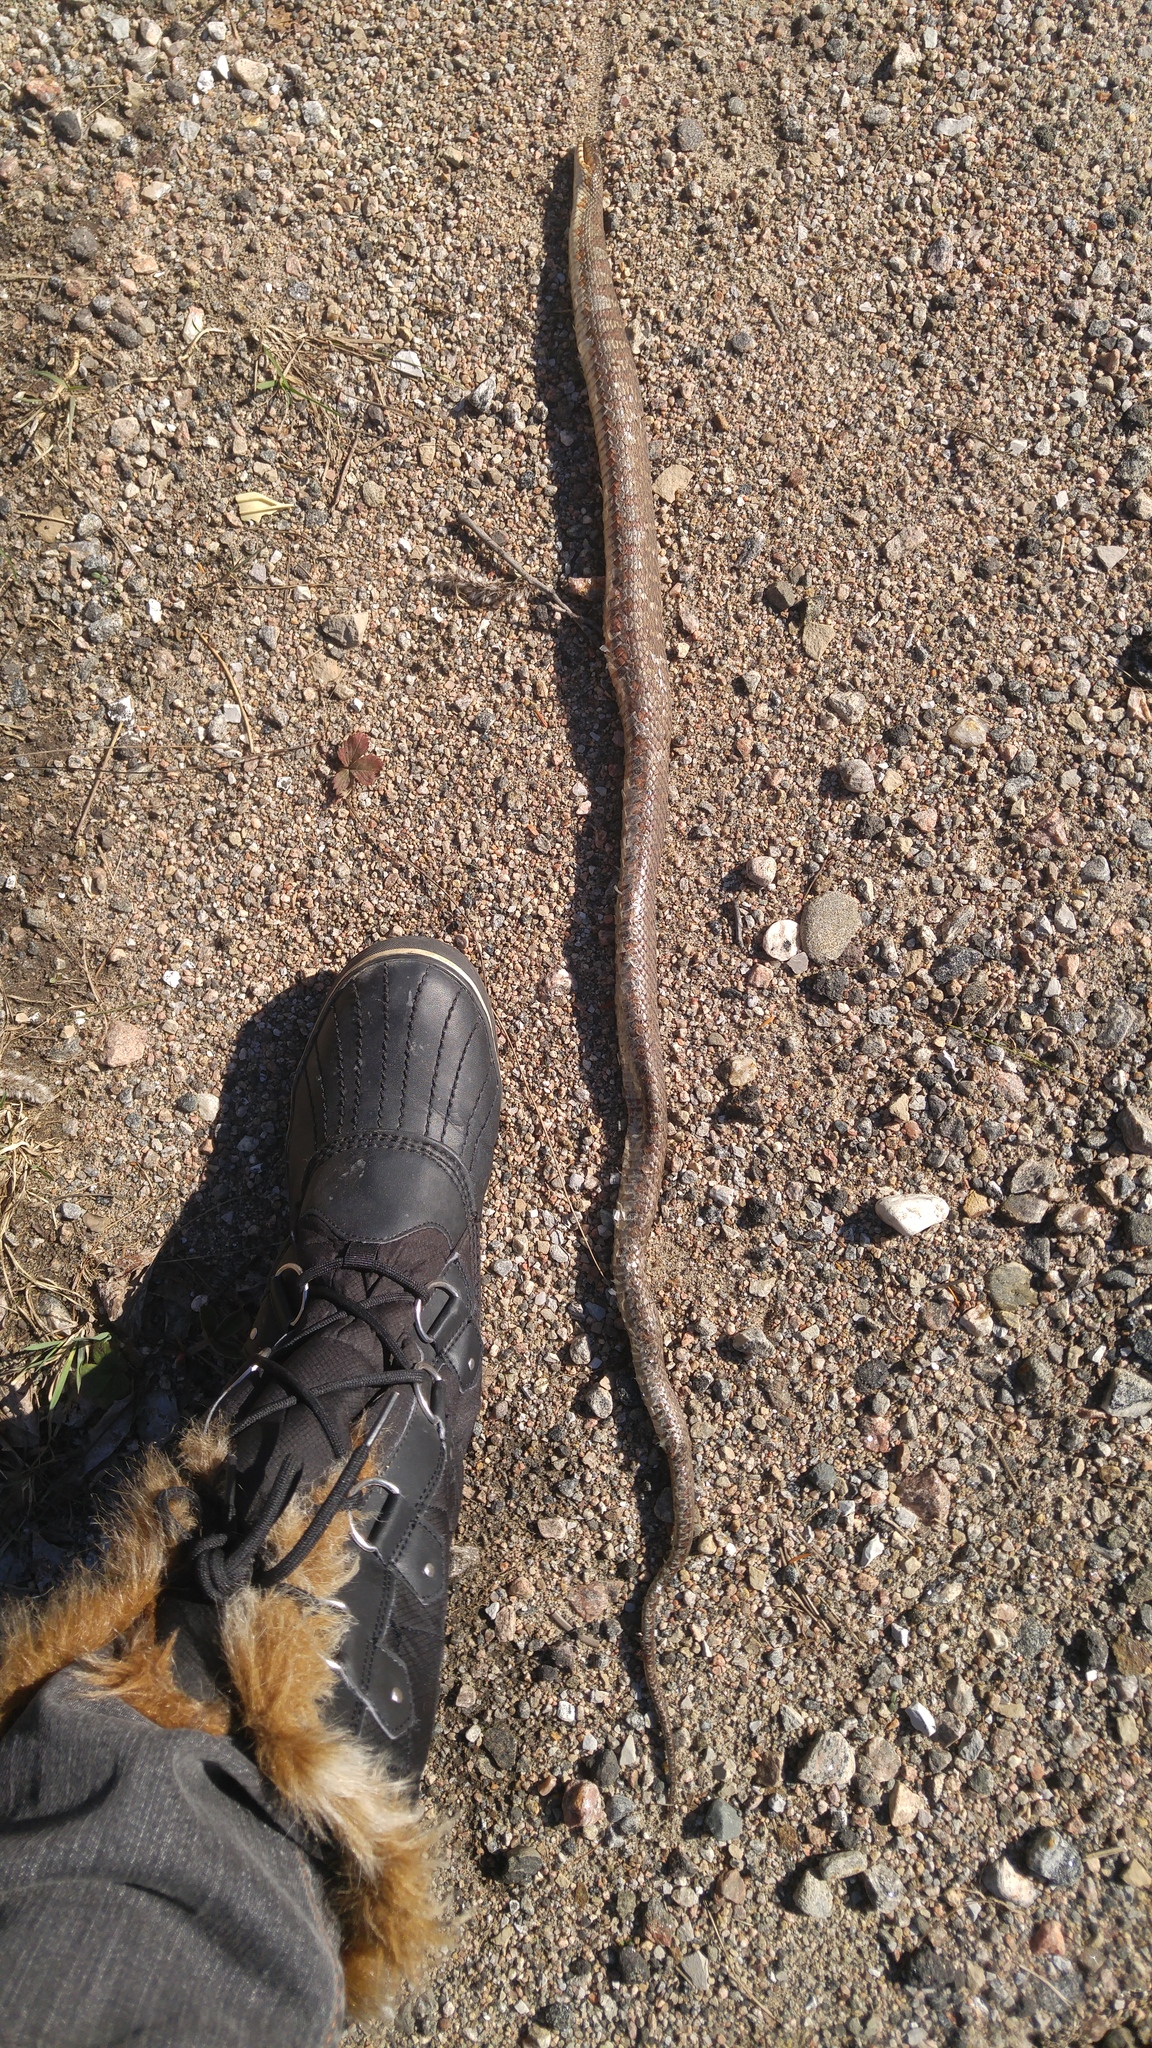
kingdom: Animalia
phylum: Chordata
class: Squamata
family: Colubridae
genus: Nerodia
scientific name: Nerodia sipedon
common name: Northern water snake
